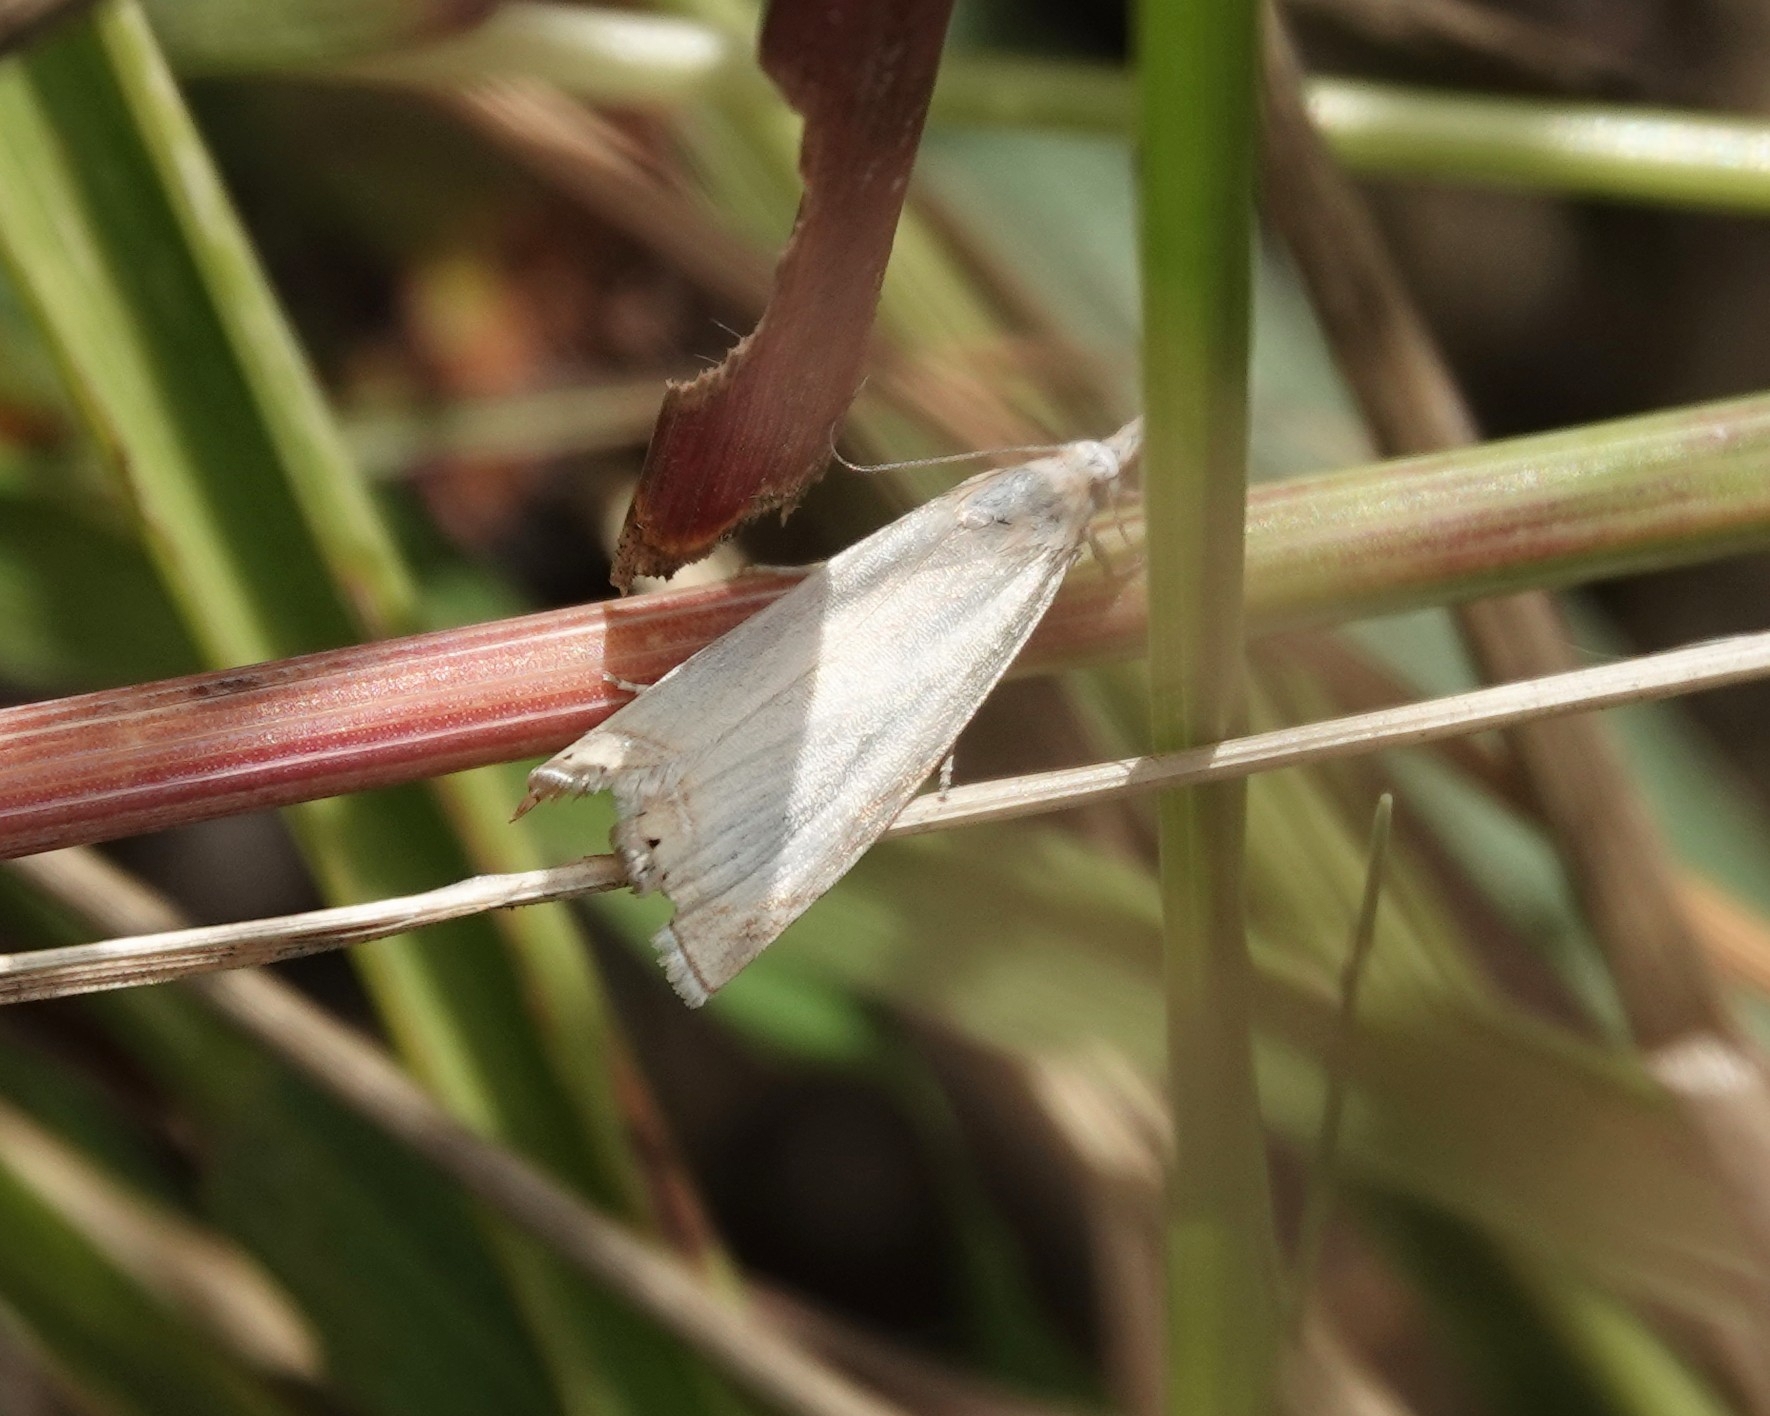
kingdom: Animalia
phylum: Arthropoda
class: Insecta
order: Lepidoptera
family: Crambidae
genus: Chrysoteuchia
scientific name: Chrysoteuchia culmella
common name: Garden grass-veneer
